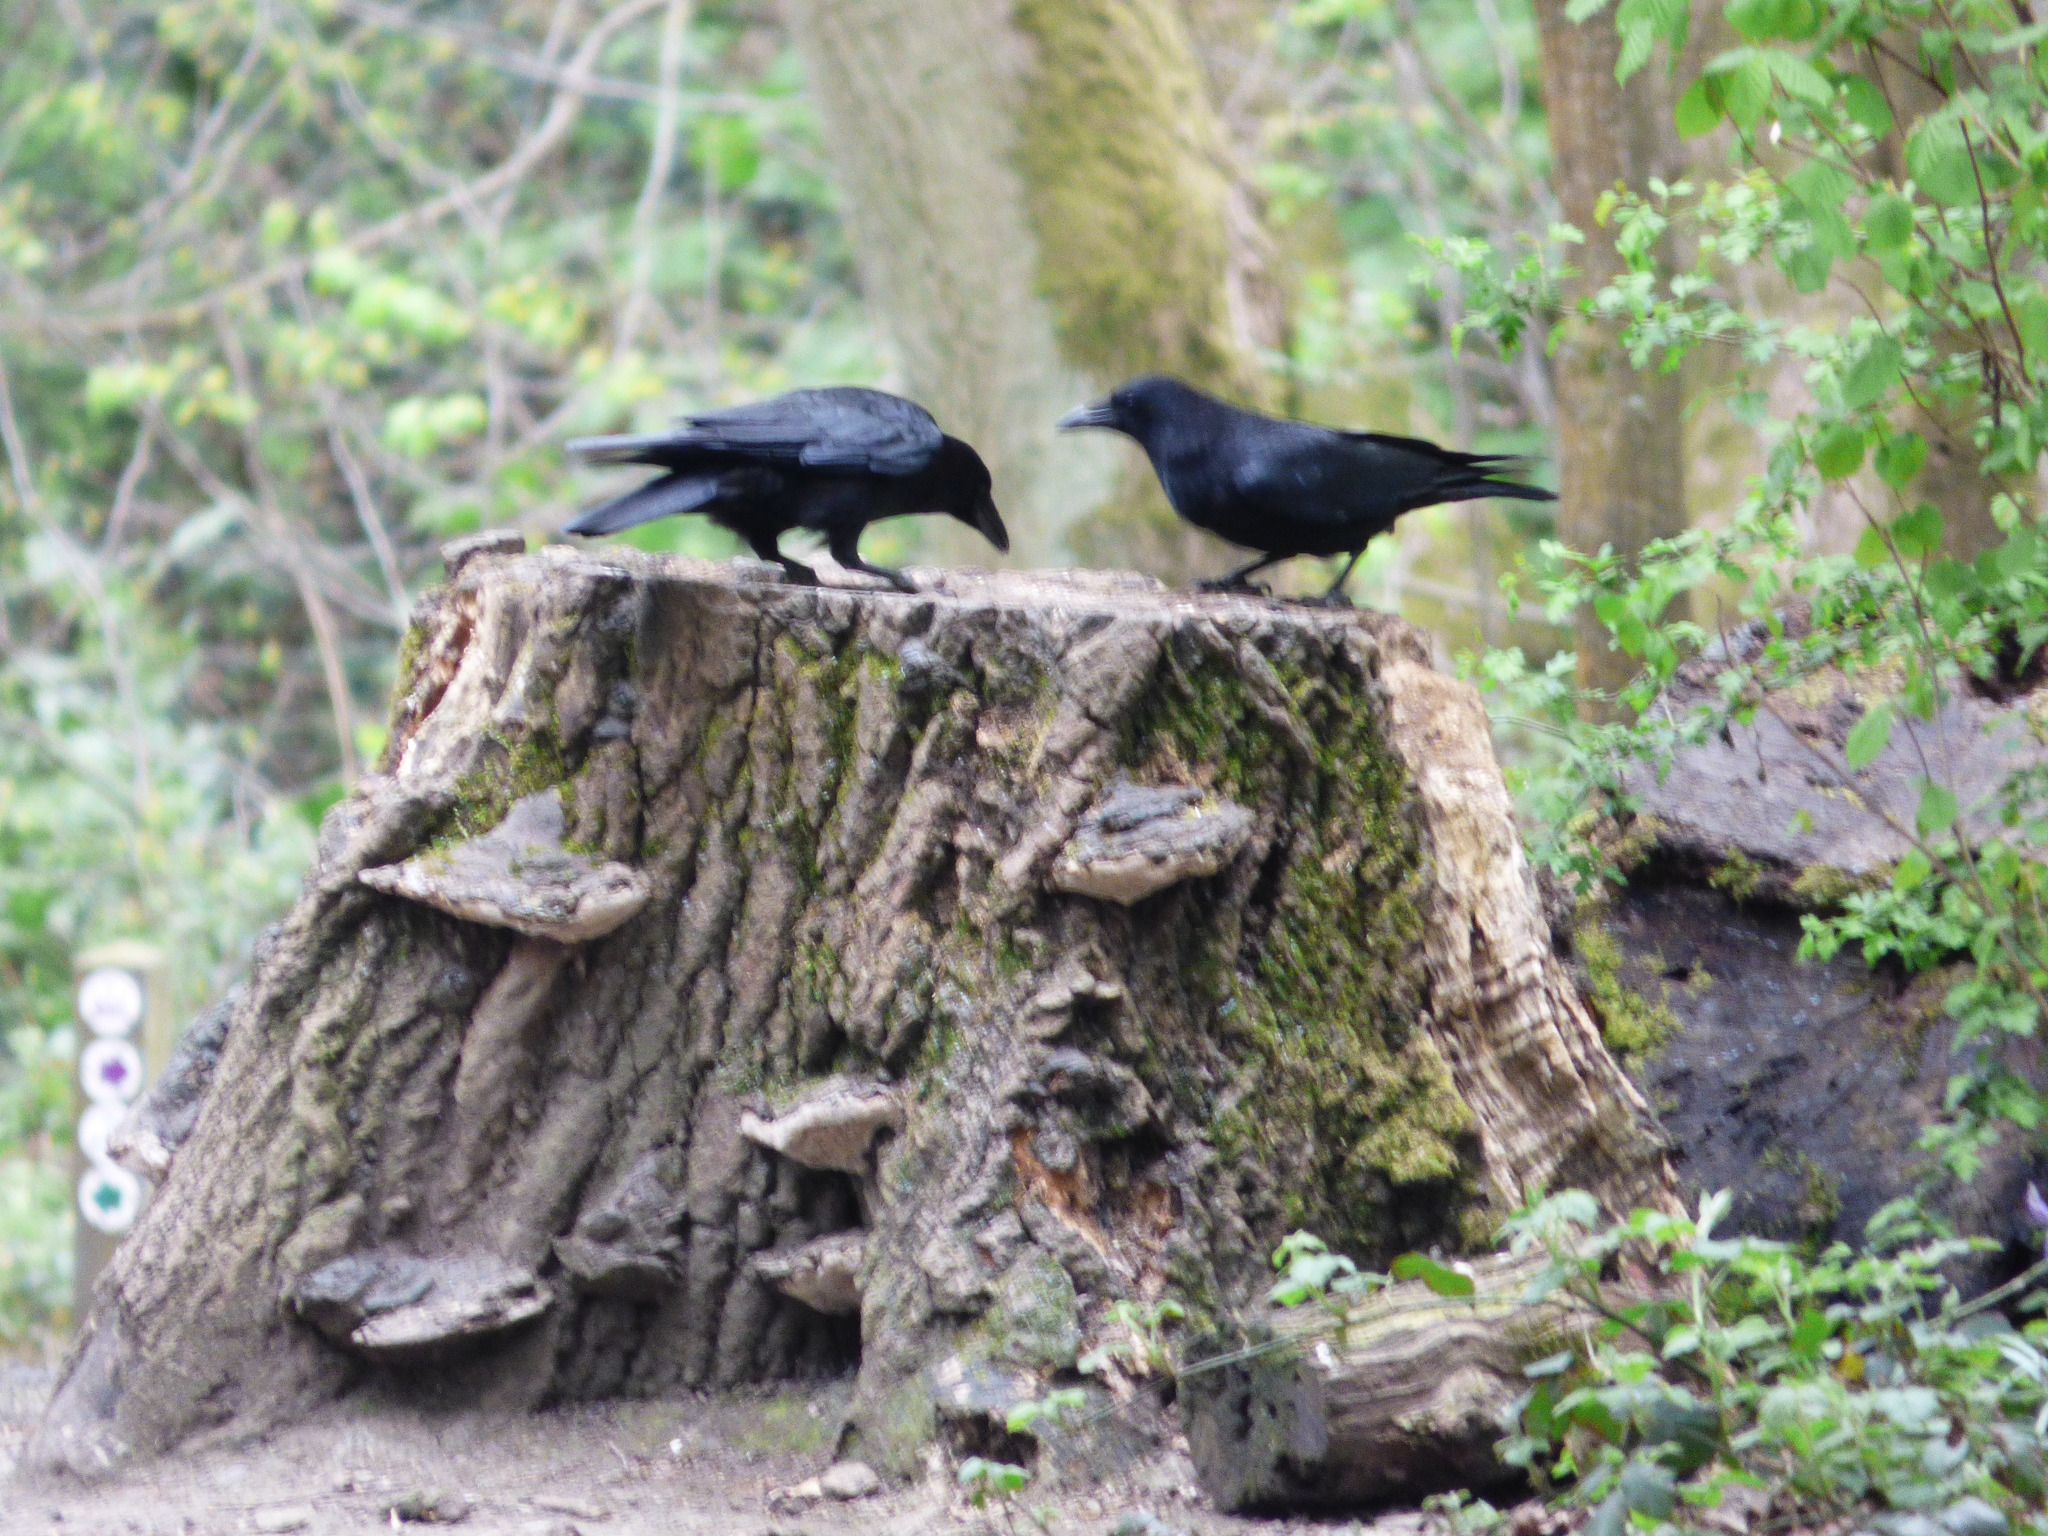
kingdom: Animalia
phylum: Chordata
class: Aves
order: Passeriformes
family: Corvidae
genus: Corvus
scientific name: Corvus corone
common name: Carrion crow
